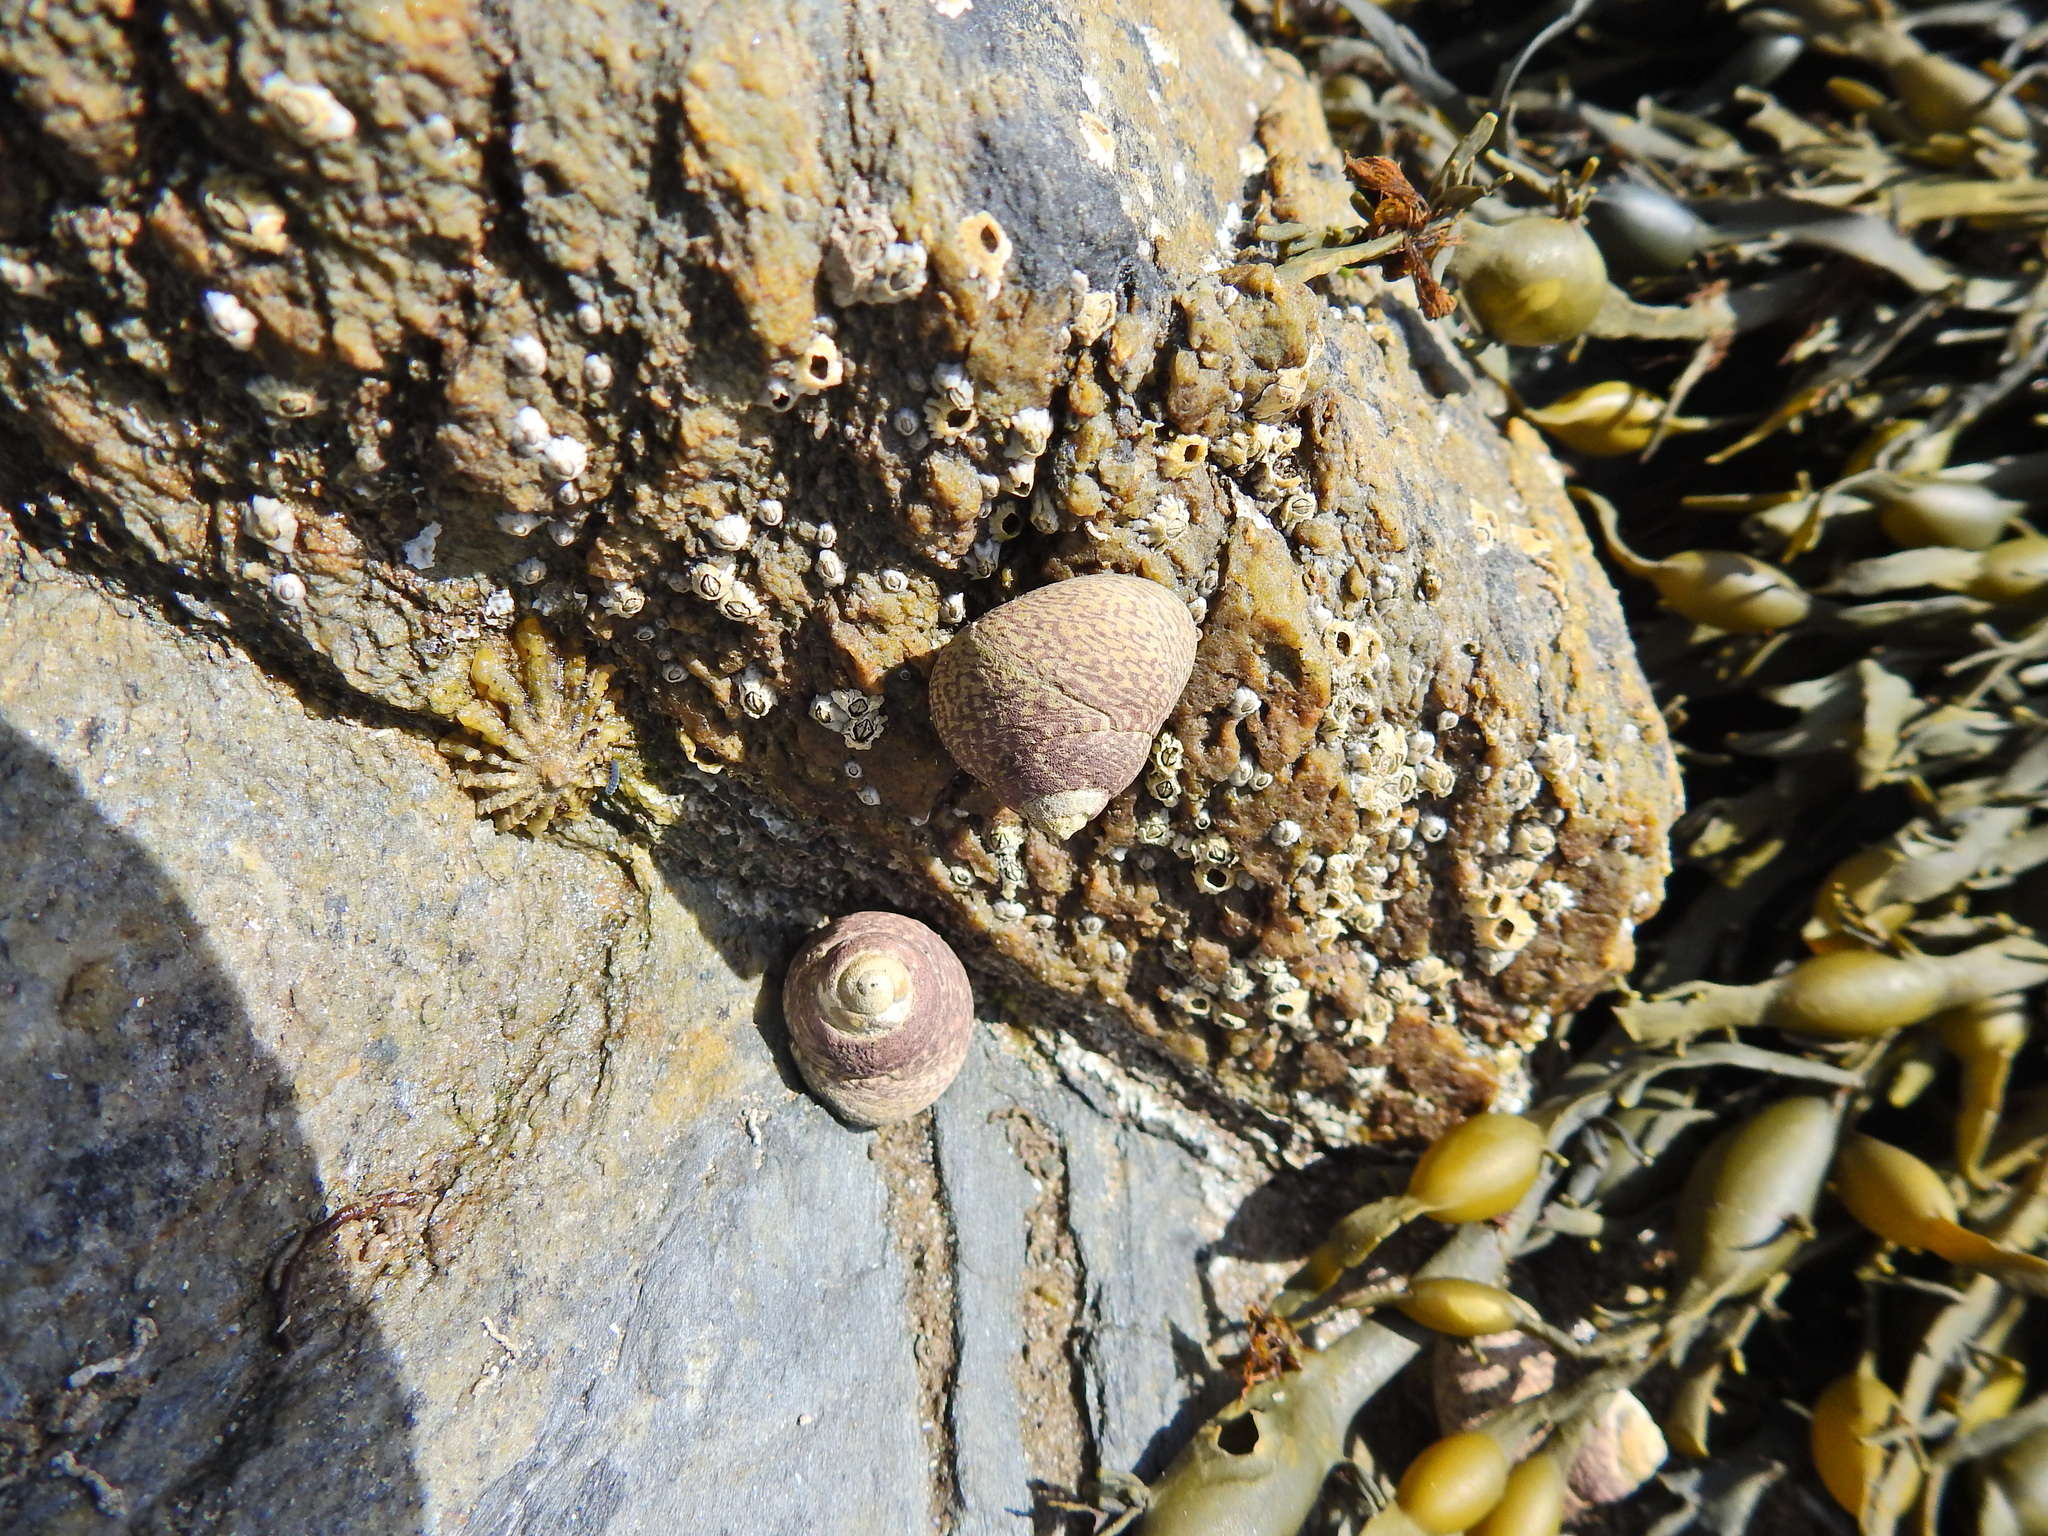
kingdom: Animalia
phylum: Mollusca
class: Gastropoda
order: Trochida
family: Trochidae
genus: Phorcus
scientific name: Phorcus lineatus
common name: Toothed top shell
